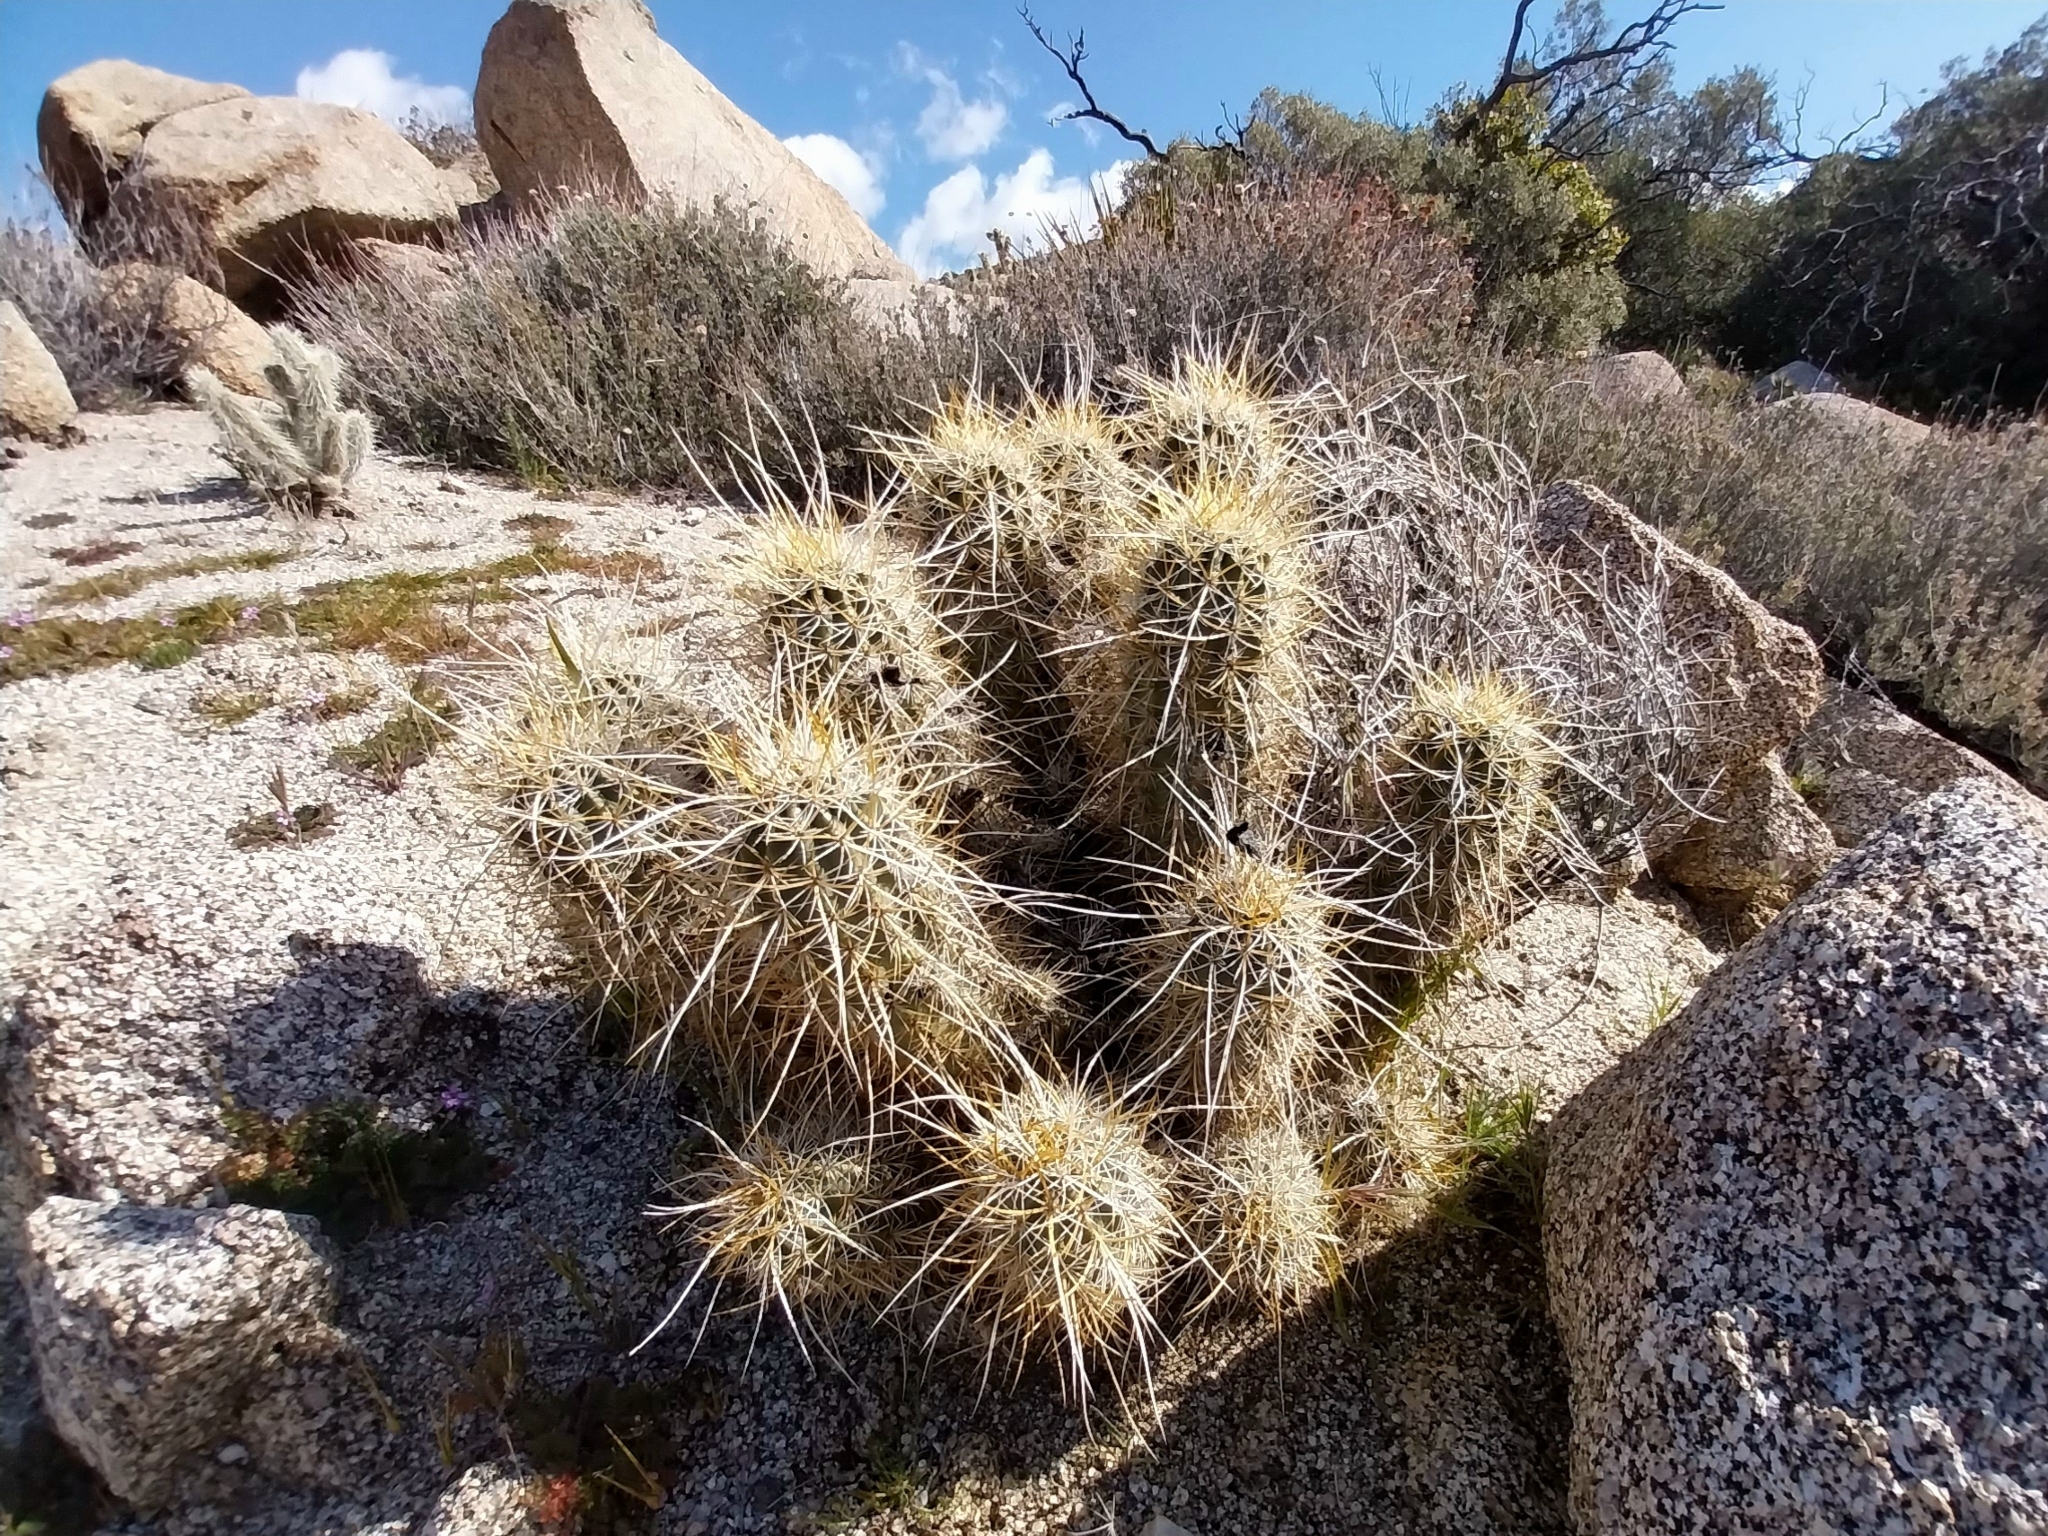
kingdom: Plantae
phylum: Tracheophyta
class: Magnoliopsida
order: Caryophyllales
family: Cactaceae
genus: Echinocereus
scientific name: Echinocereus engelmannii
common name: Engelmann's hedgehog cactus
